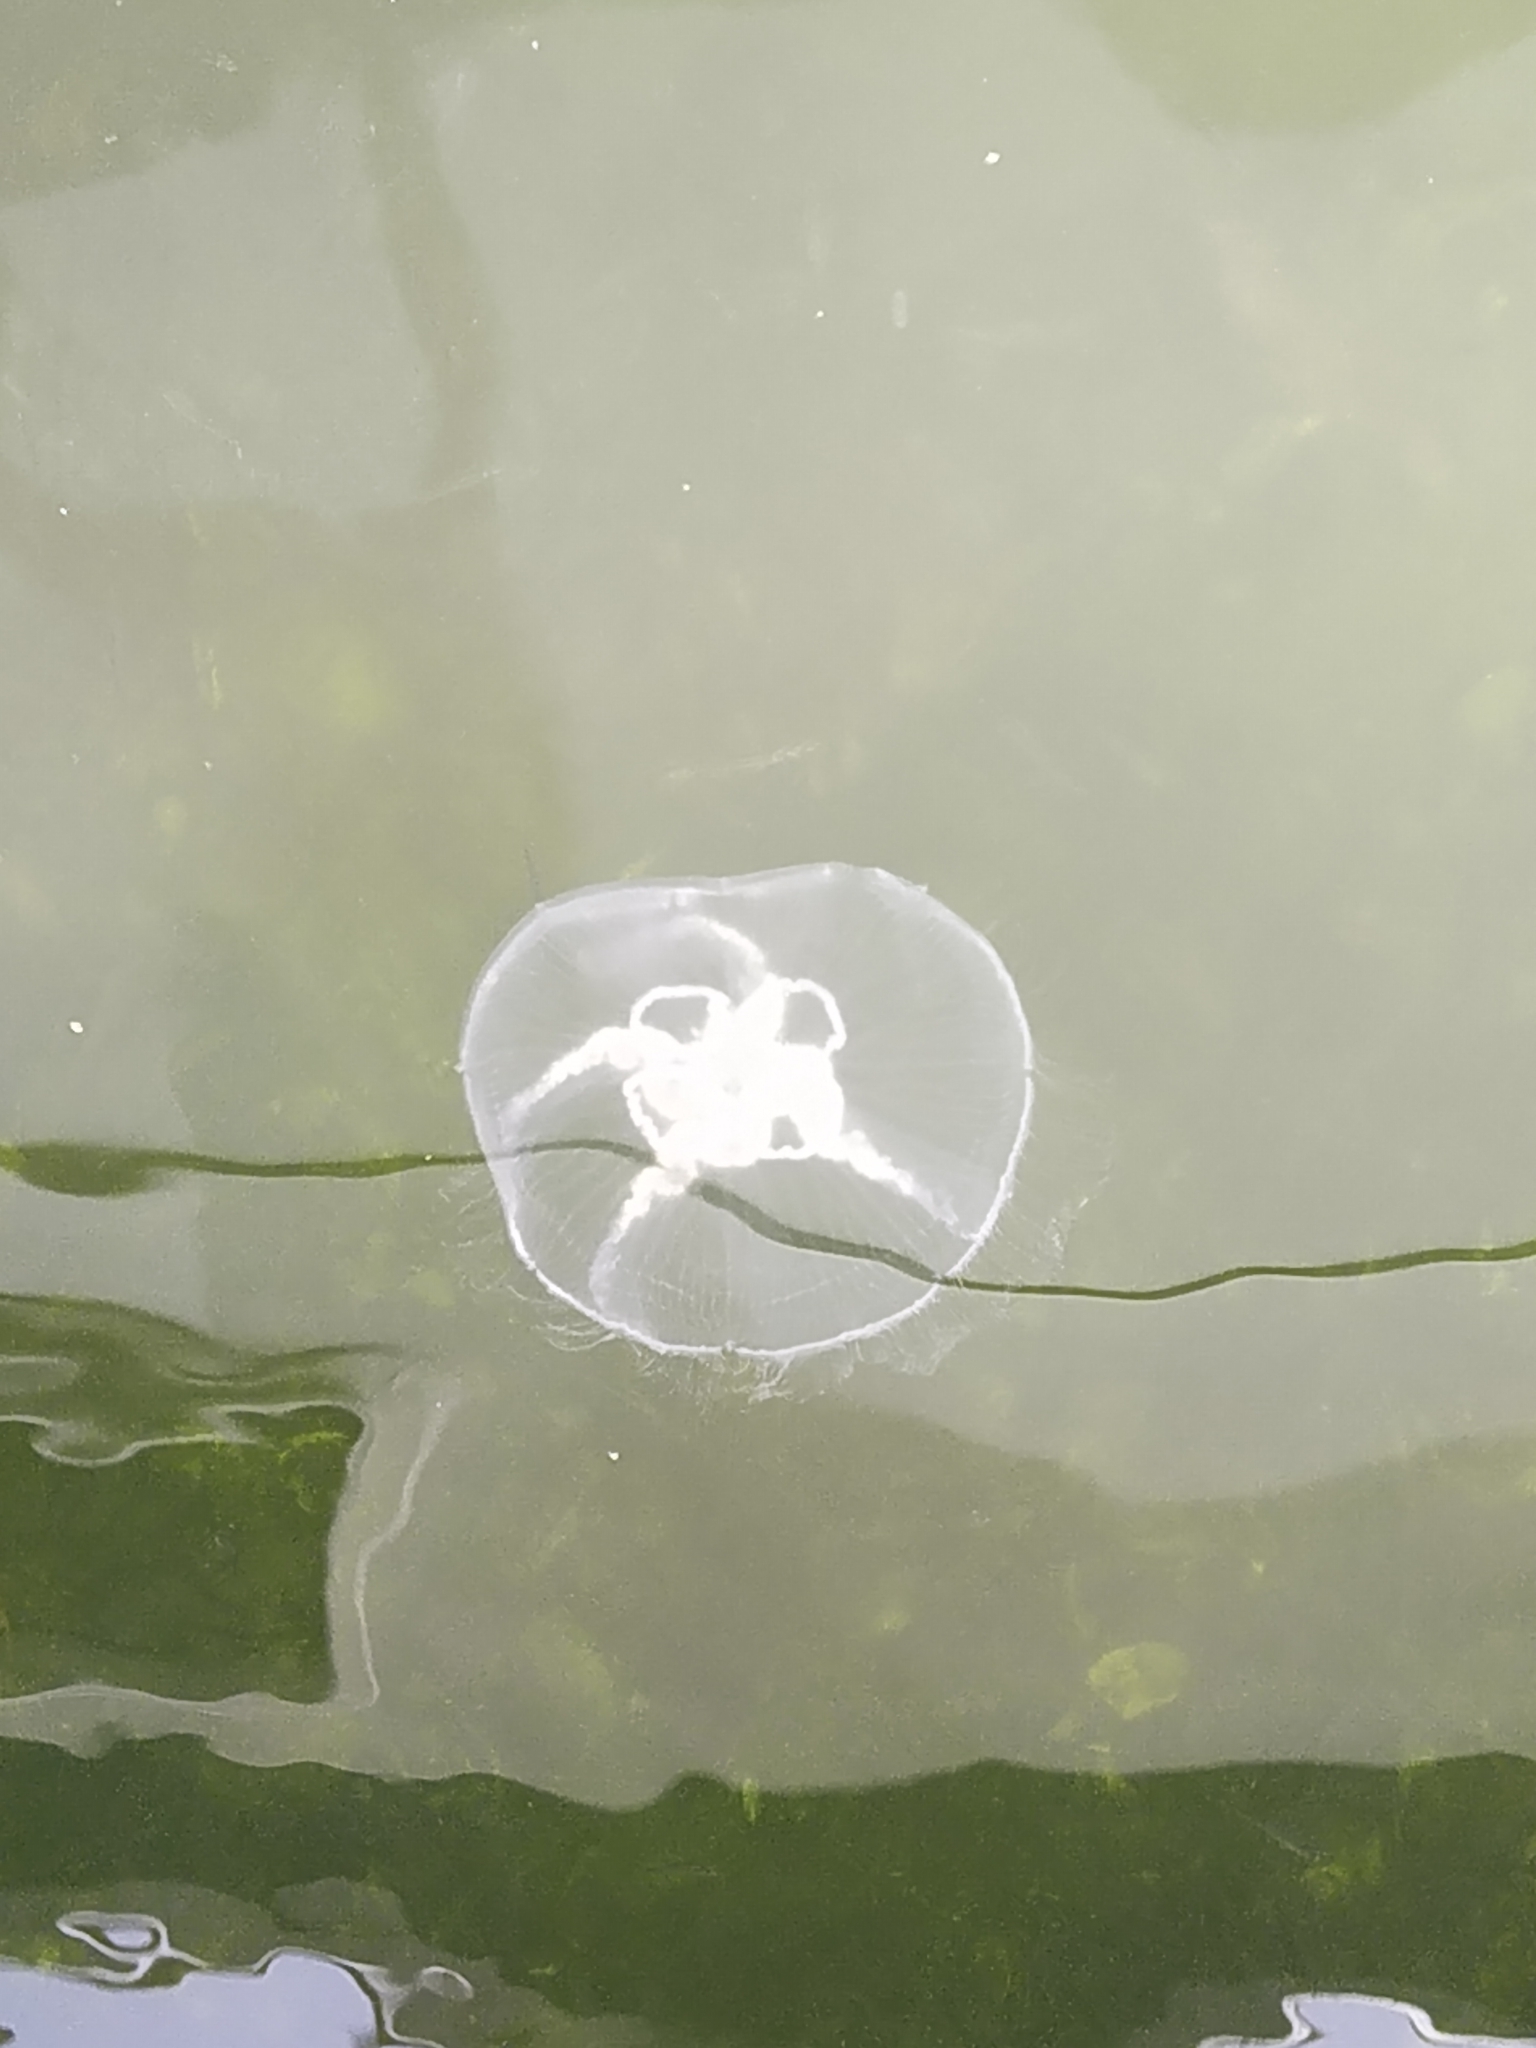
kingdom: Animalia
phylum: Cnidaria
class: Scyphozoa
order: Semaeostomeae
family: Ulmaridae
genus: Aurelia
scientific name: Aurelia aurita
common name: Moon jellyfish
